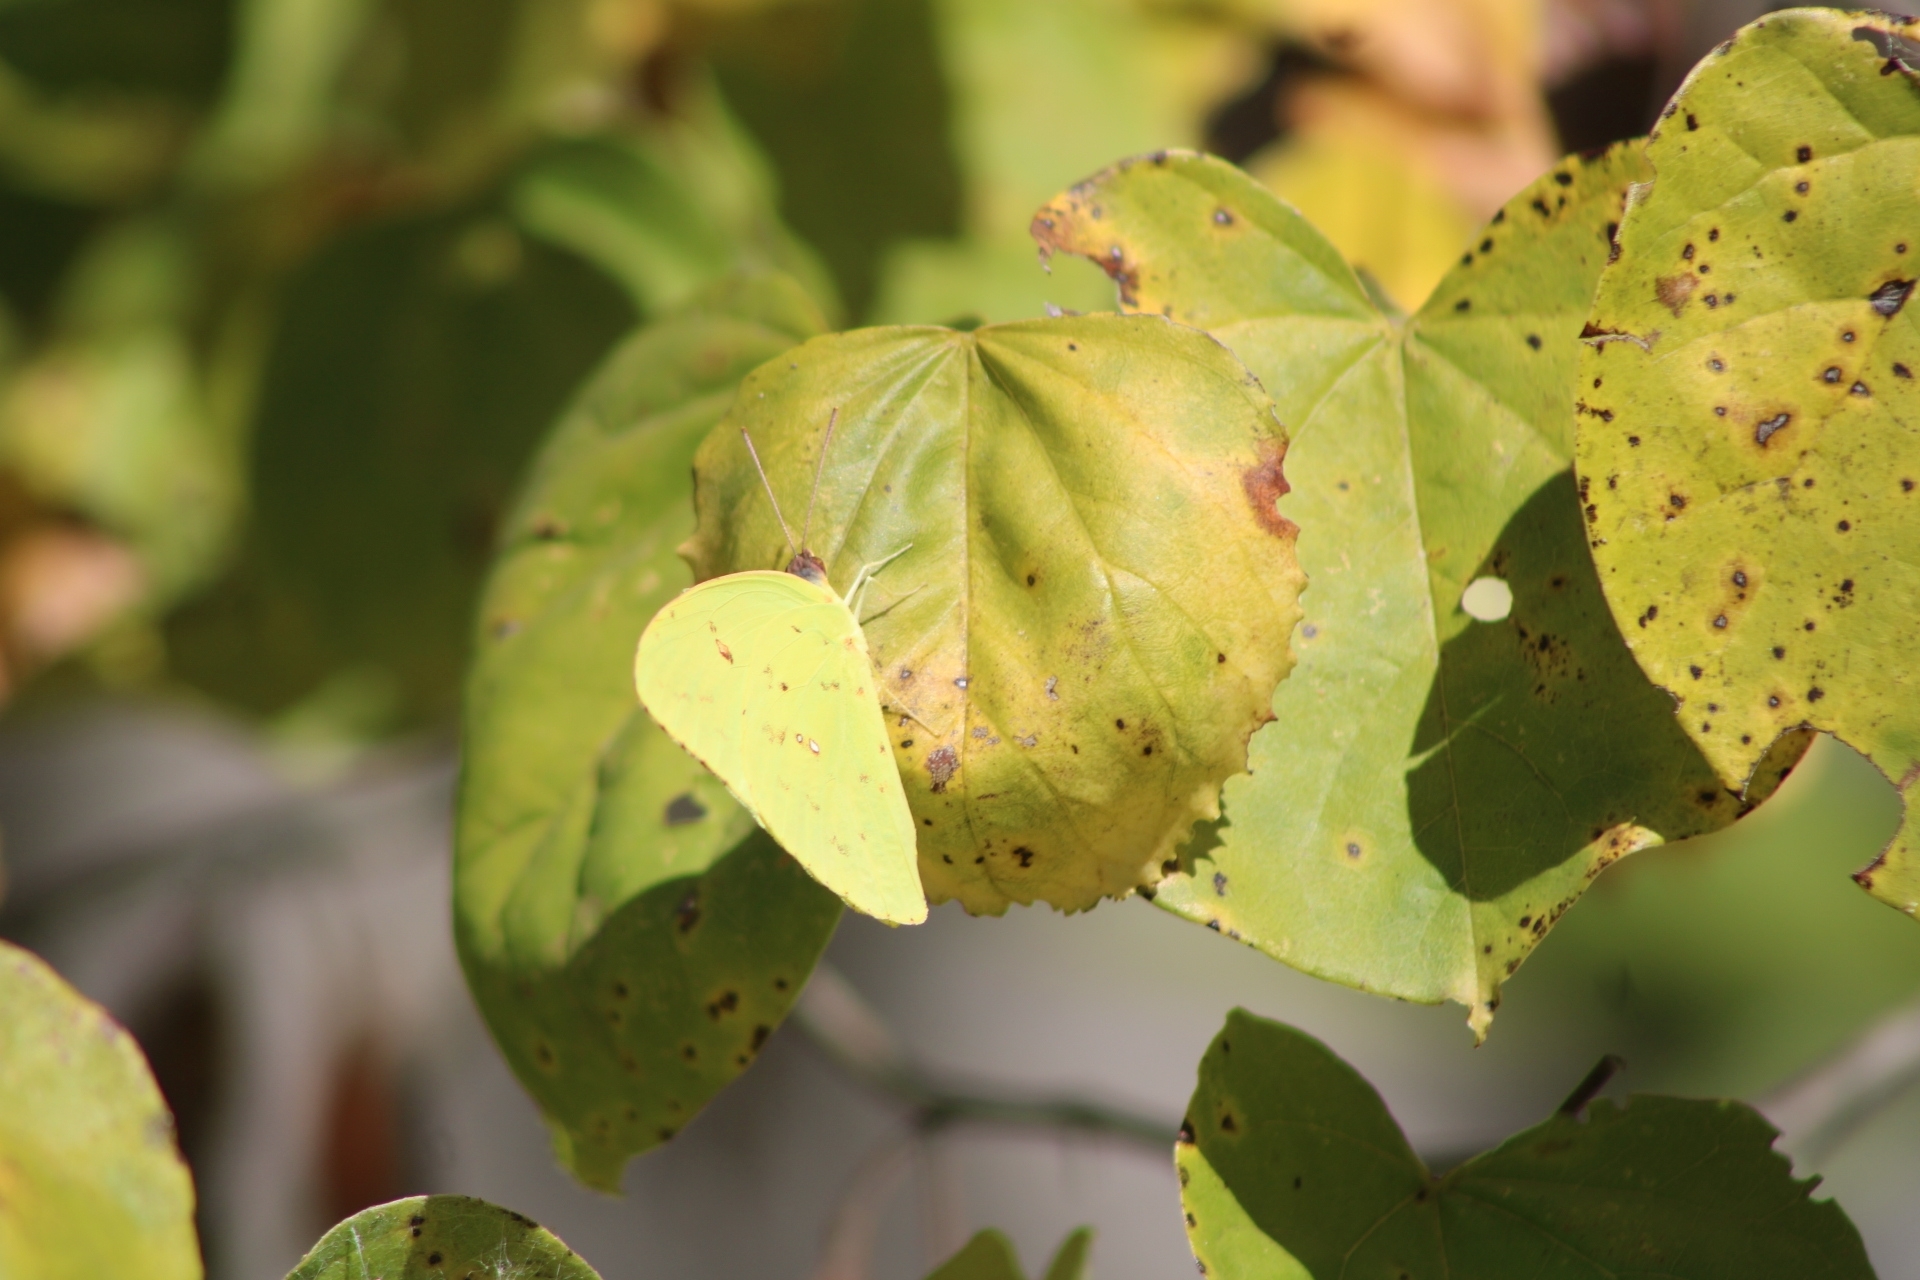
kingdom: Animalia
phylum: Arthropoda
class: Insecta
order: Lepidoptera
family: Pieridae
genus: Phoebis
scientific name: Phoebis sennae
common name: Cloudless sulphur
